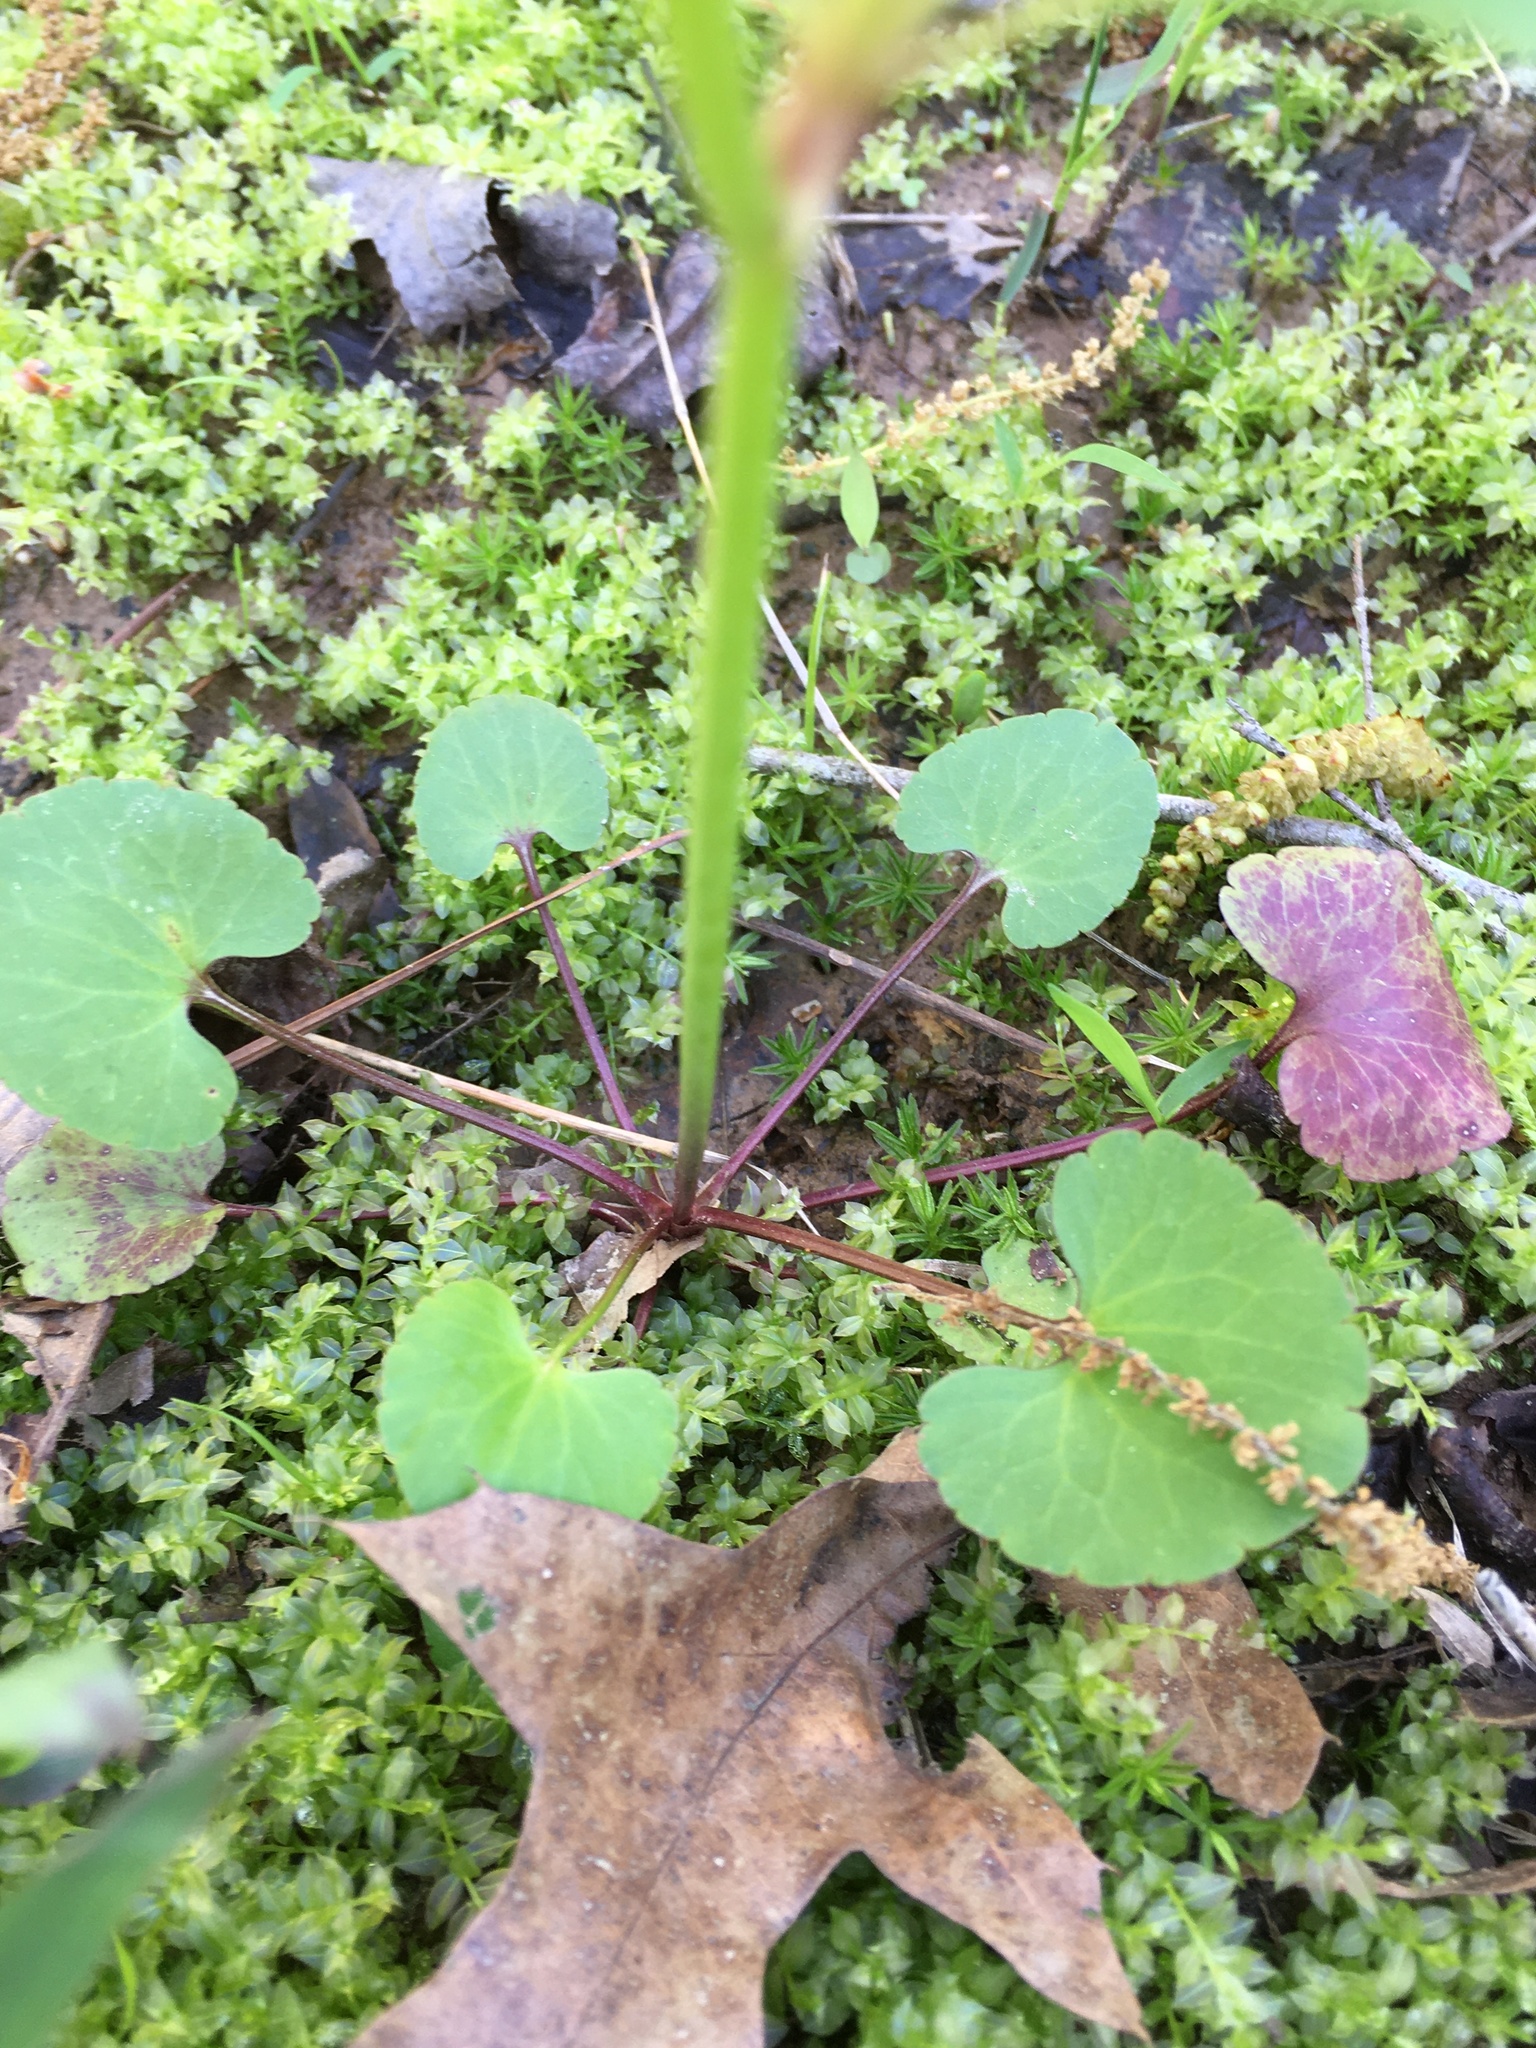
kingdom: Plantae
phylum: Tracheophyta
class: Magnoliopsida
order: Ranunculales
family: Ranunculaceae
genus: Ranunculus
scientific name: Ranunculus abortivus
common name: Early wood buttercup
